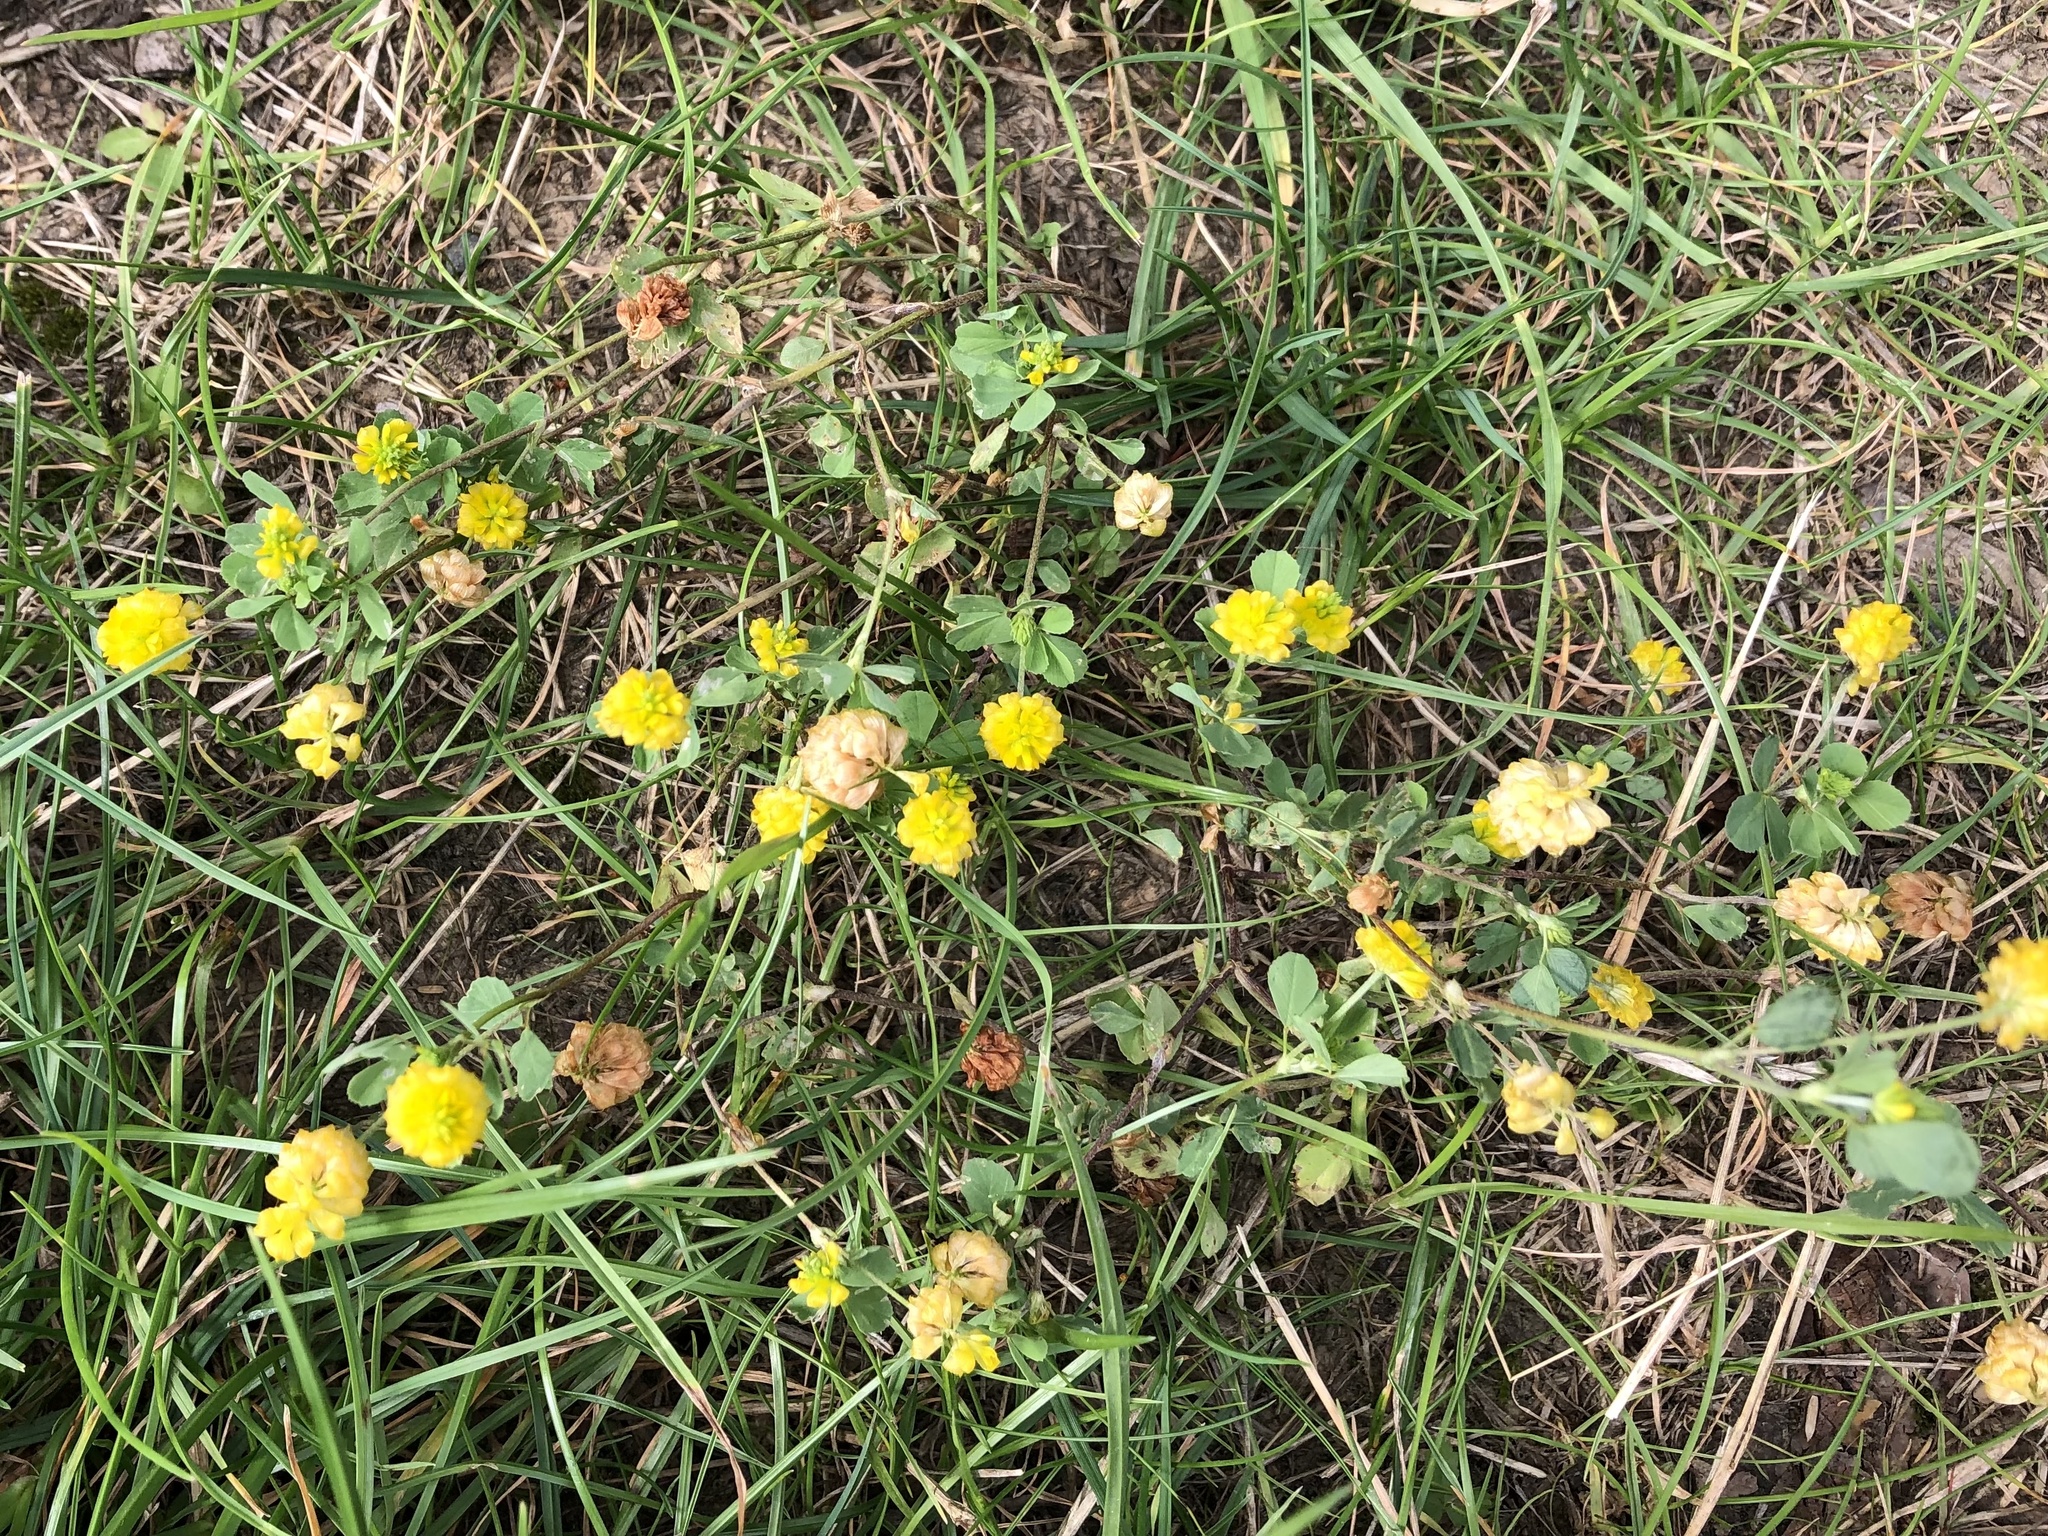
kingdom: Plantae
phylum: Tracheophyta
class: Magnoliopsida
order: Fabales
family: Fabaceae
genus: Trifolium
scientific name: Trifolium campestre
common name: Field clover
